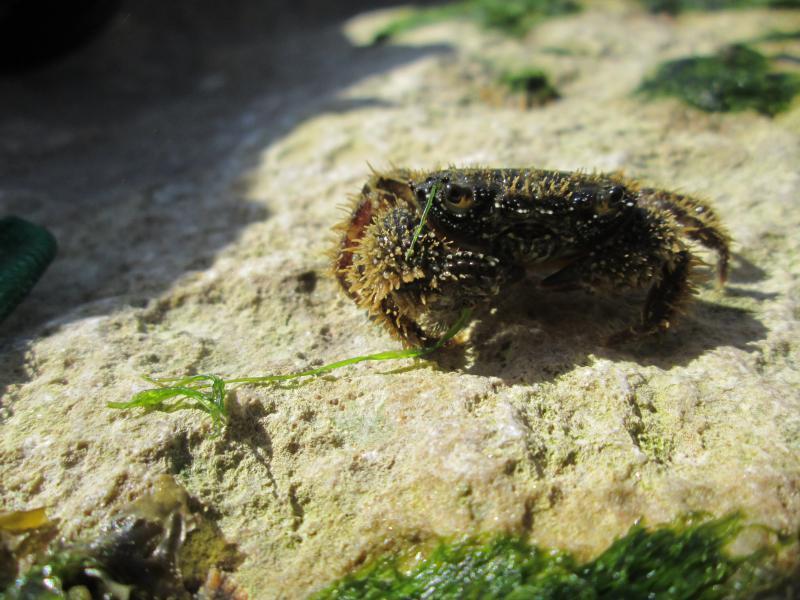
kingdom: Animalia
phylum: Arthropoda
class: Malacostraca
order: Decapoda
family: Eriphiidae
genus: Eriphia
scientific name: Eriphia verrucosa
